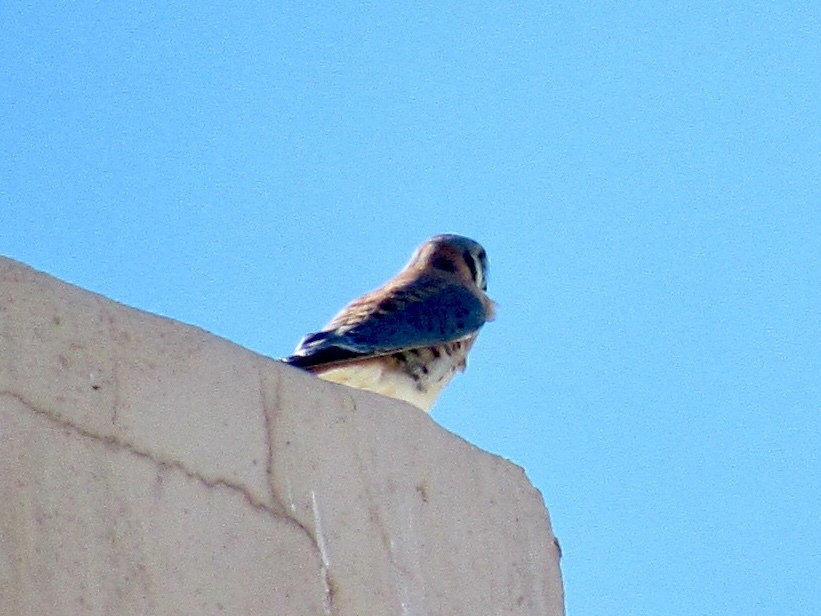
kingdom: Animalia
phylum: Chordata
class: Aves
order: Falconiformes
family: Falconidae
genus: Falco
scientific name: Falco sparverius
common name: American kestrel
